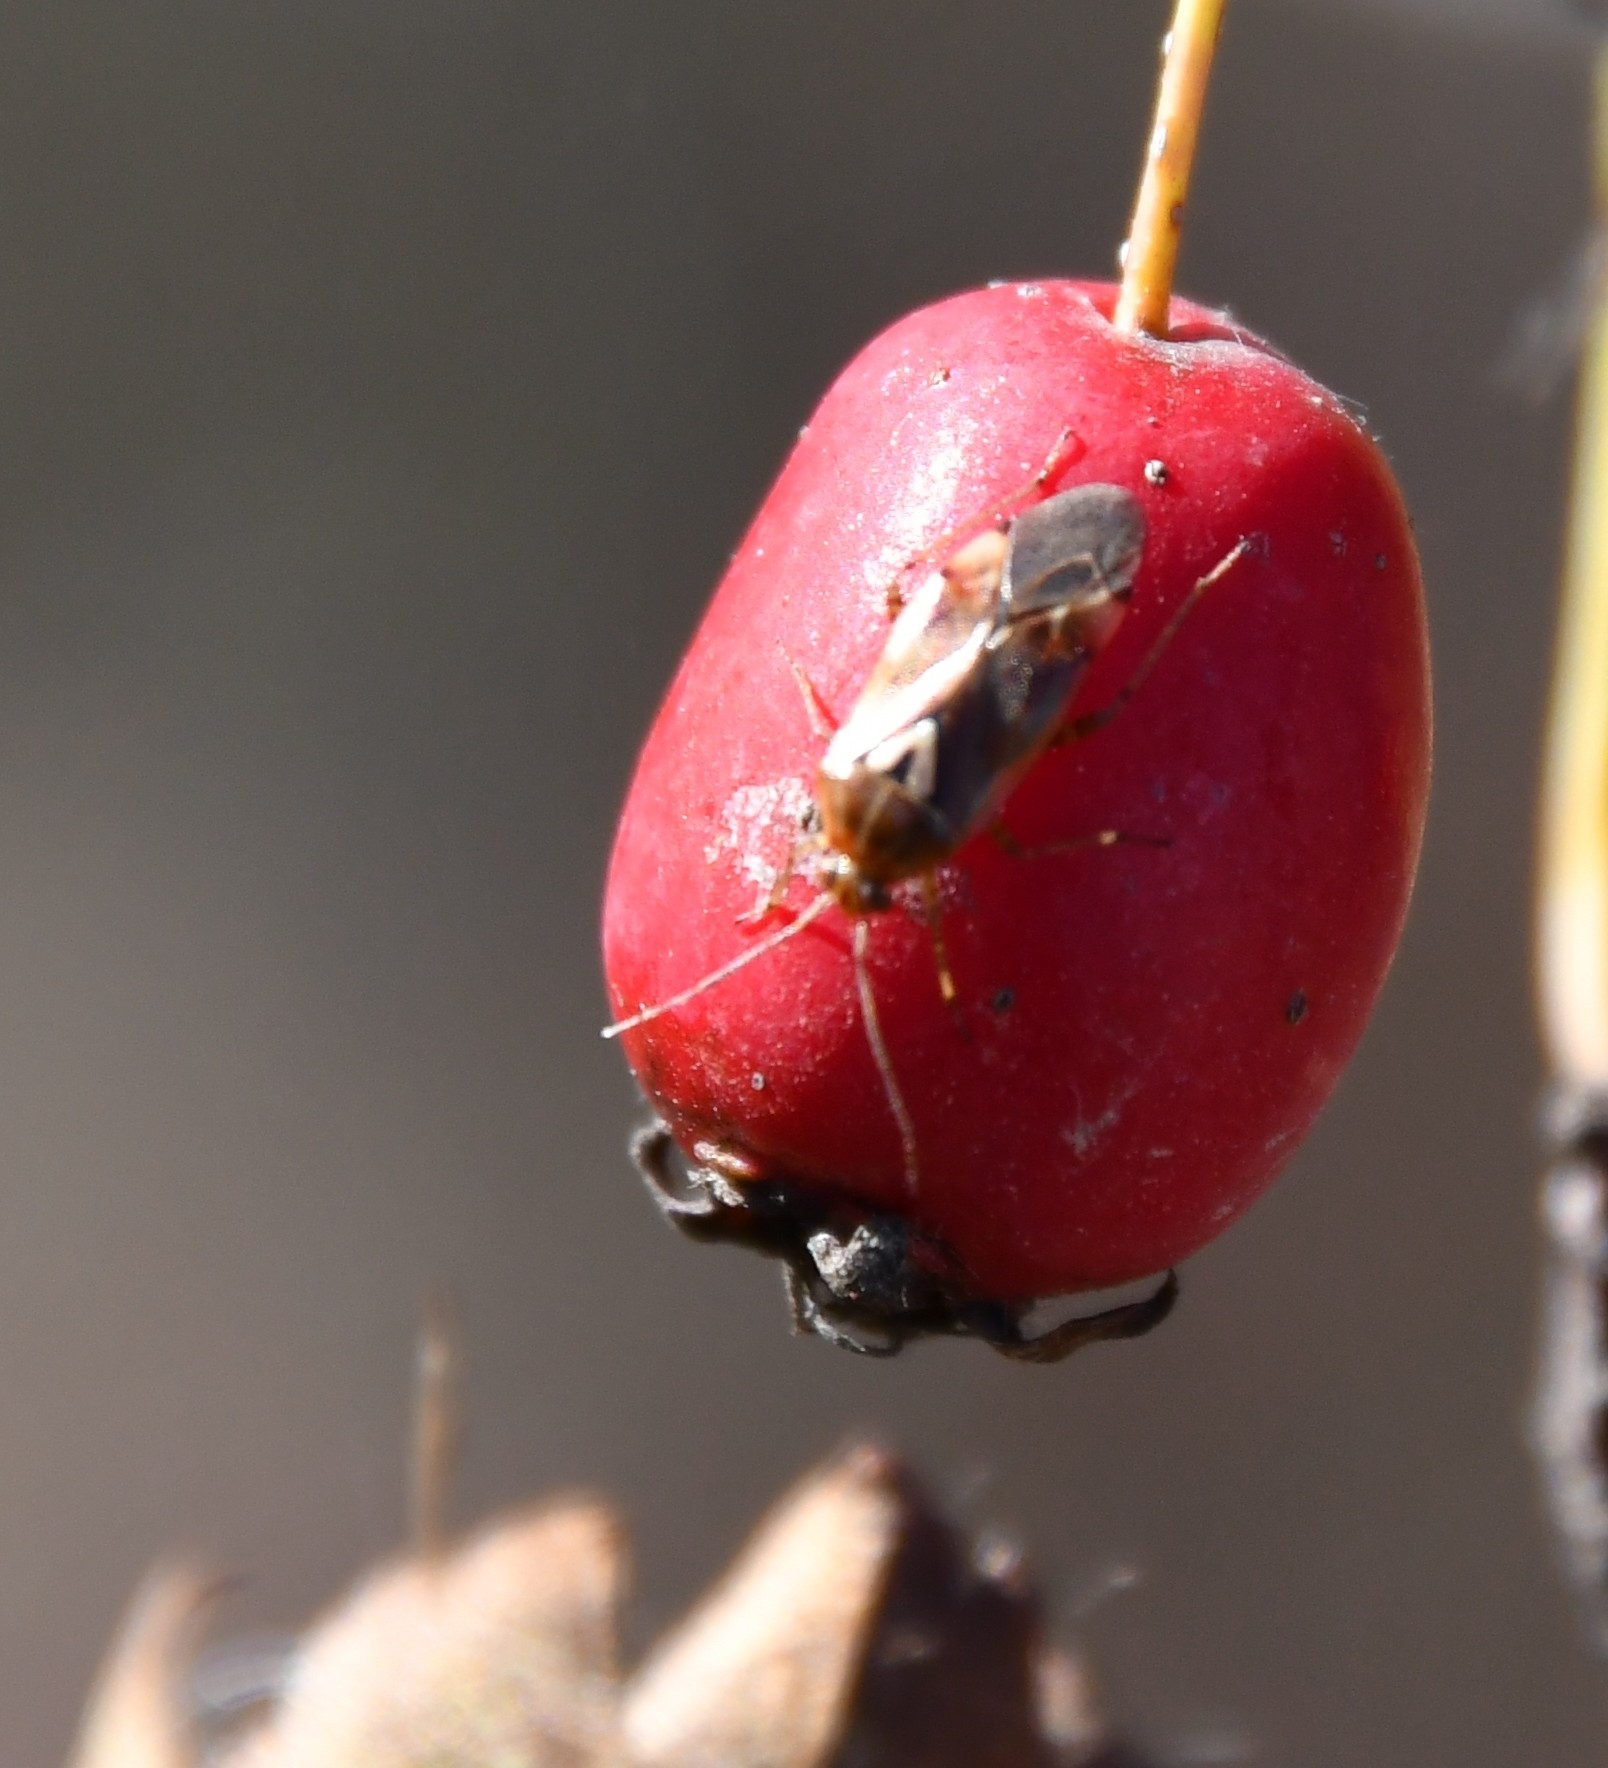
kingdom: Animalia
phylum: Arthropoda
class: Insecta
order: Hemiptera
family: Miridae
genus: Lygus
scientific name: Lygus pratensis
